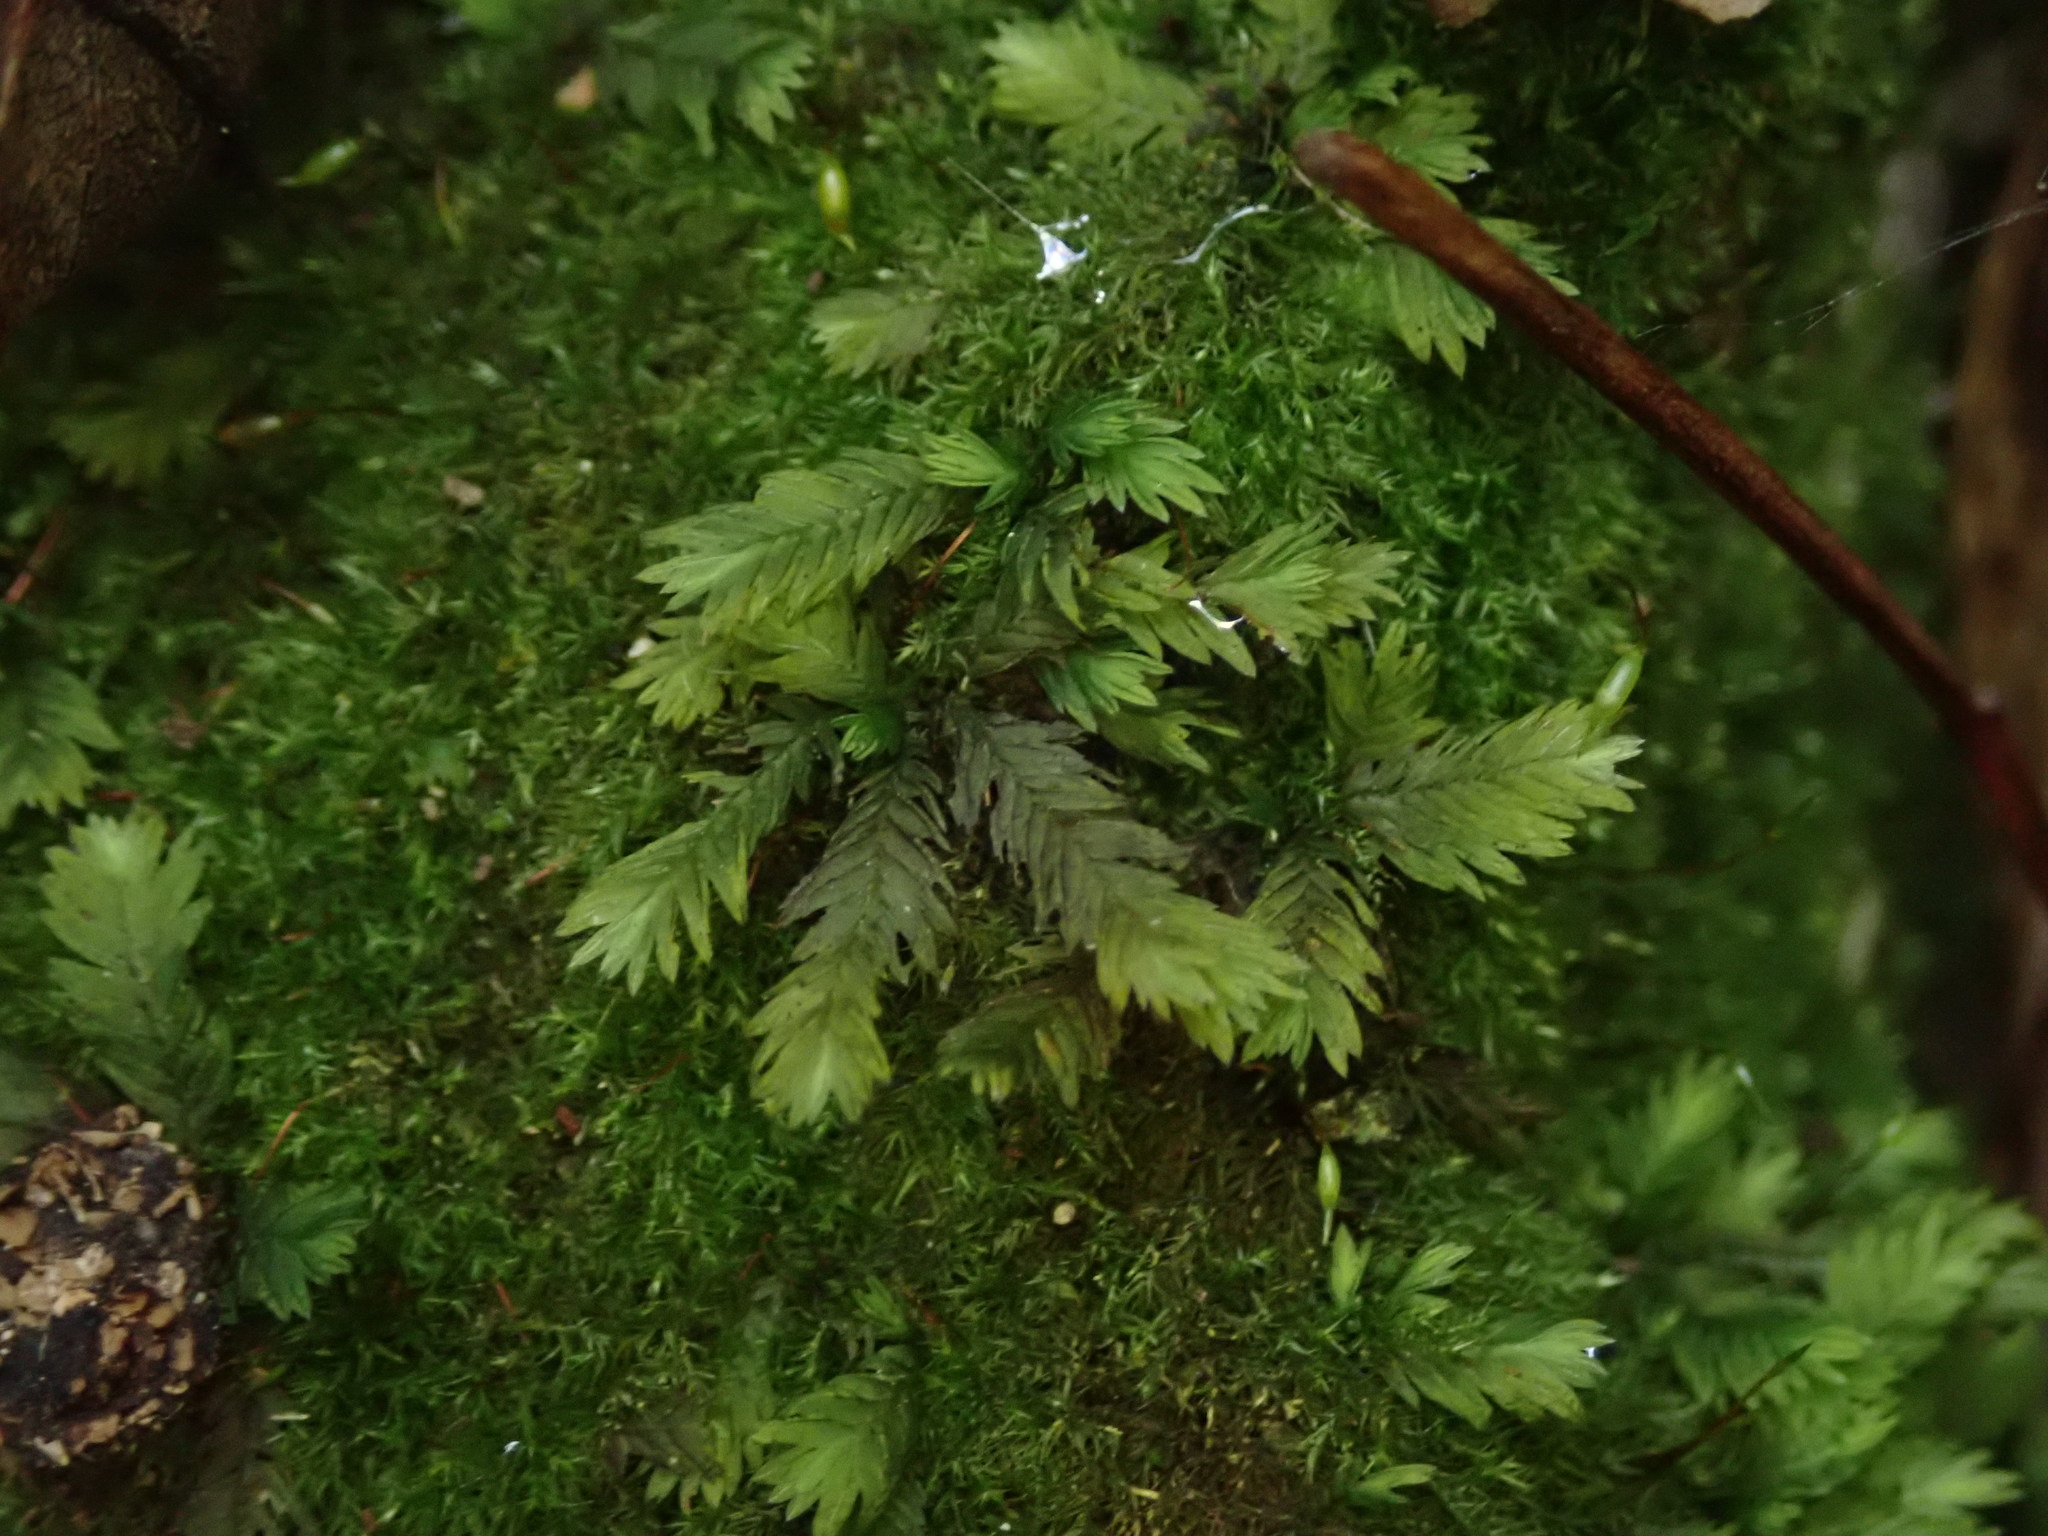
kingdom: Plantae
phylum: Bryophyta
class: Bryopsida
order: Dicranales
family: Fissidentaceae
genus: Fissidens
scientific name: Fissidens taxifolius
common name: Yew-leaved pocket moss
